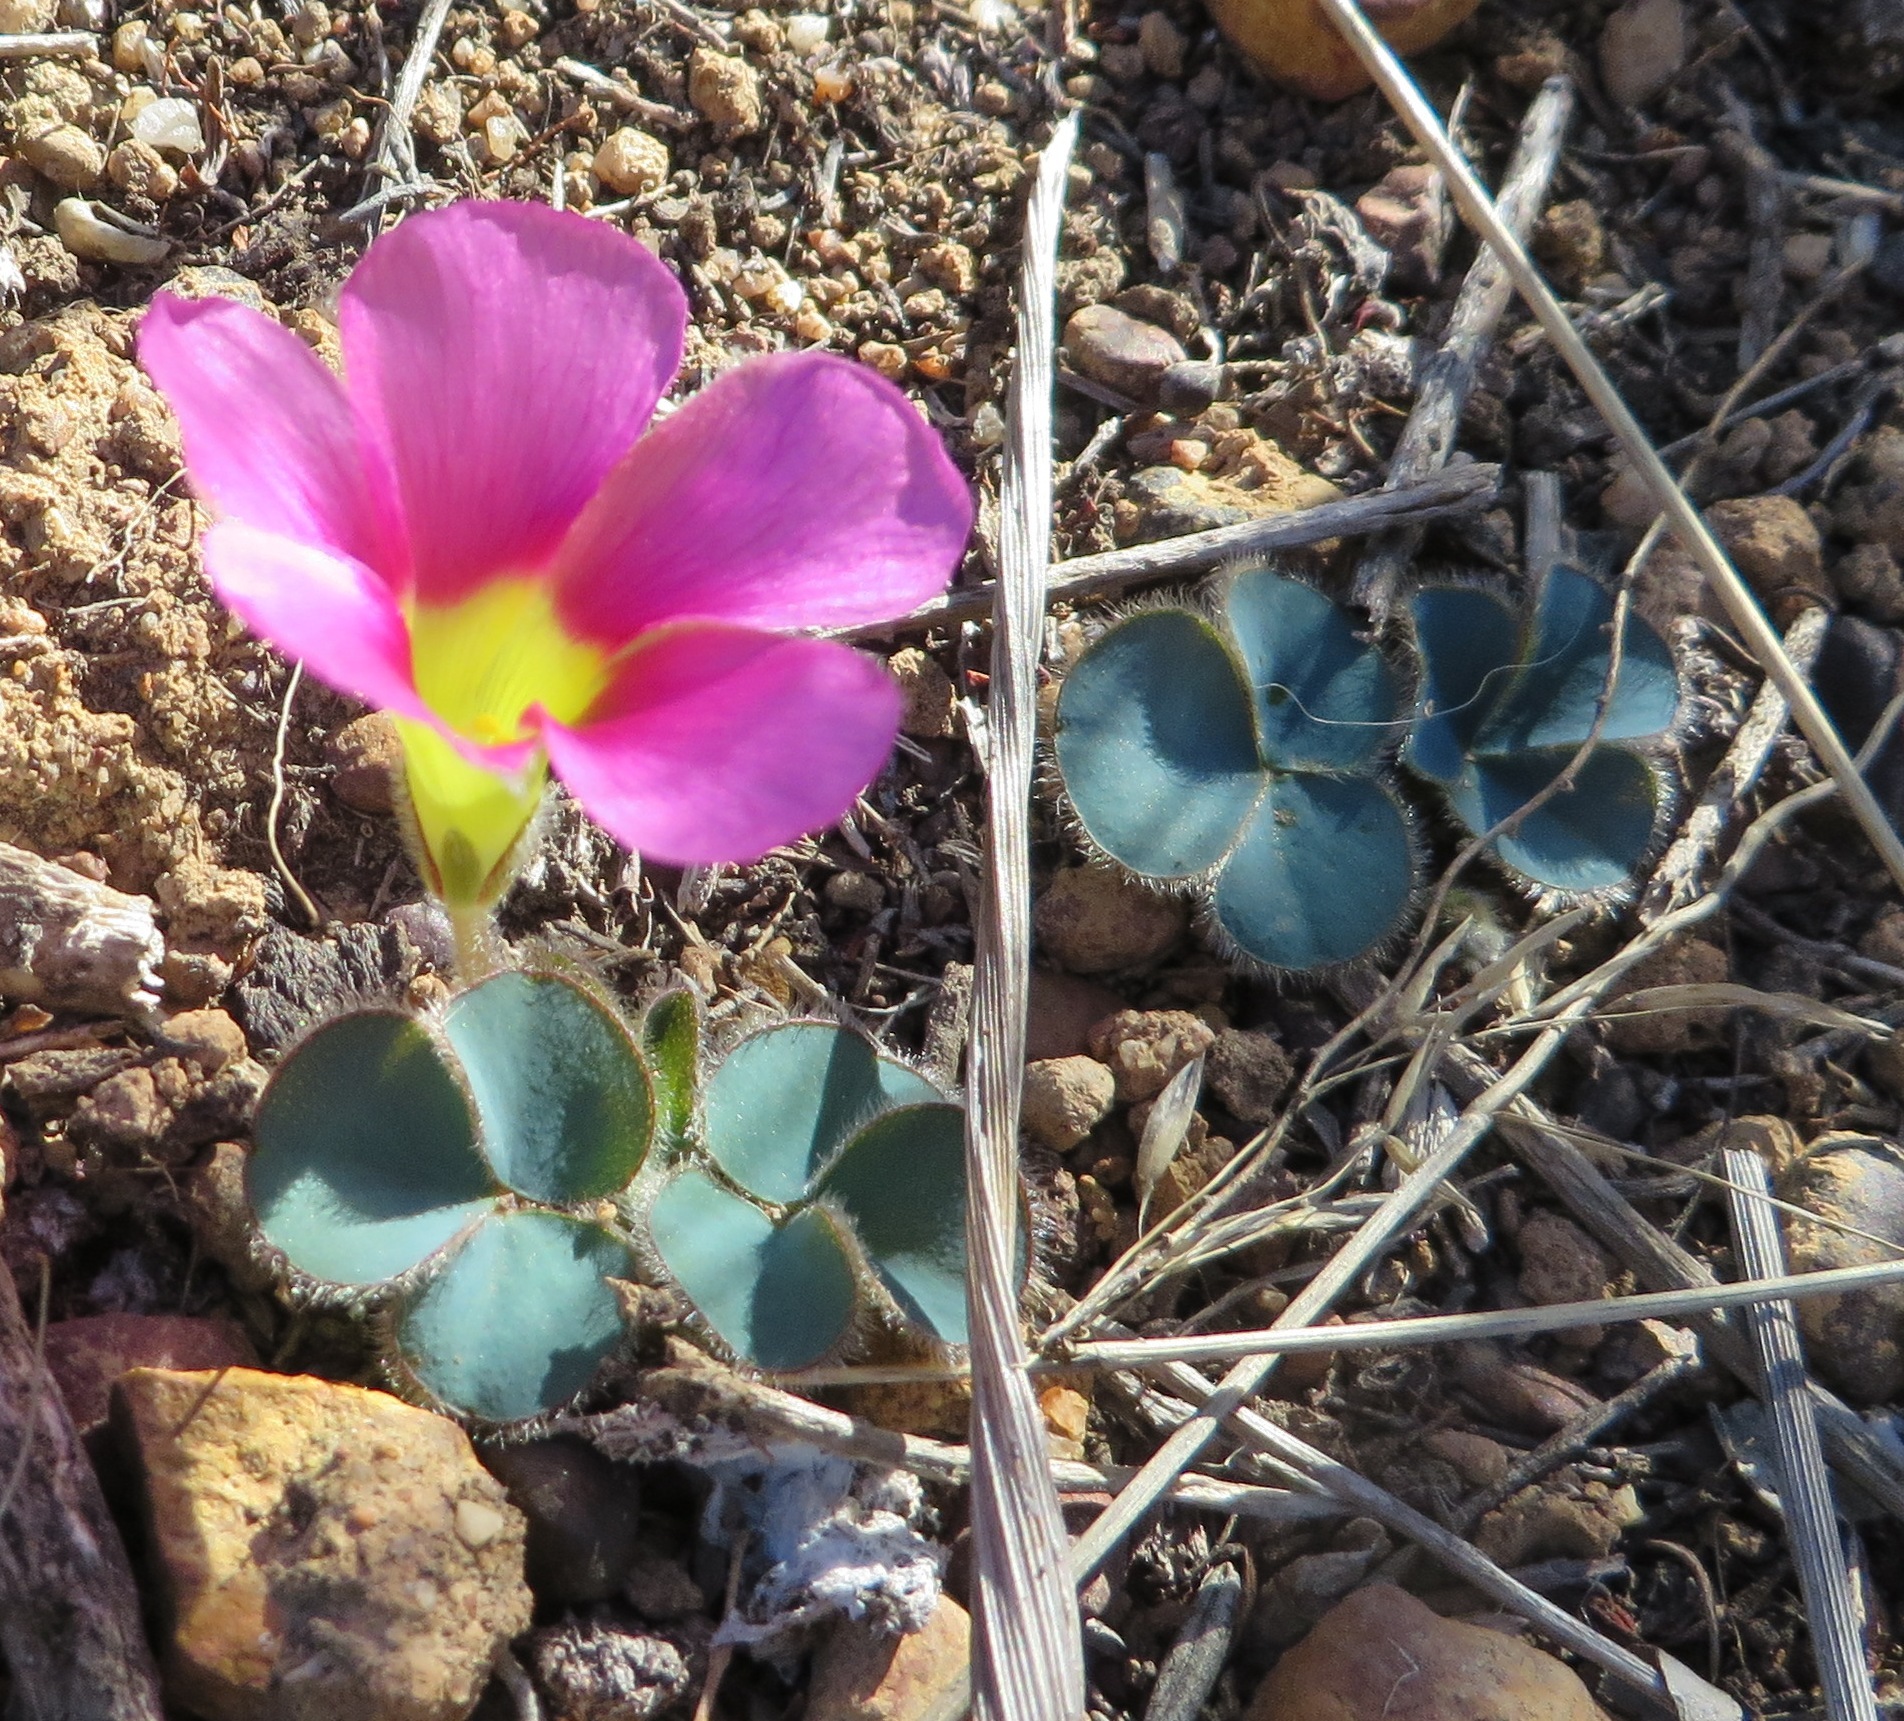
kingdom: Plantae
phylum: Tracheophyta
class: Magnoliopsida
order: Oxalidales
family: Oxalidaceae
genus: Oxalis
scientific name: Oxalis purpurea
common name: Purple woodsorrel
